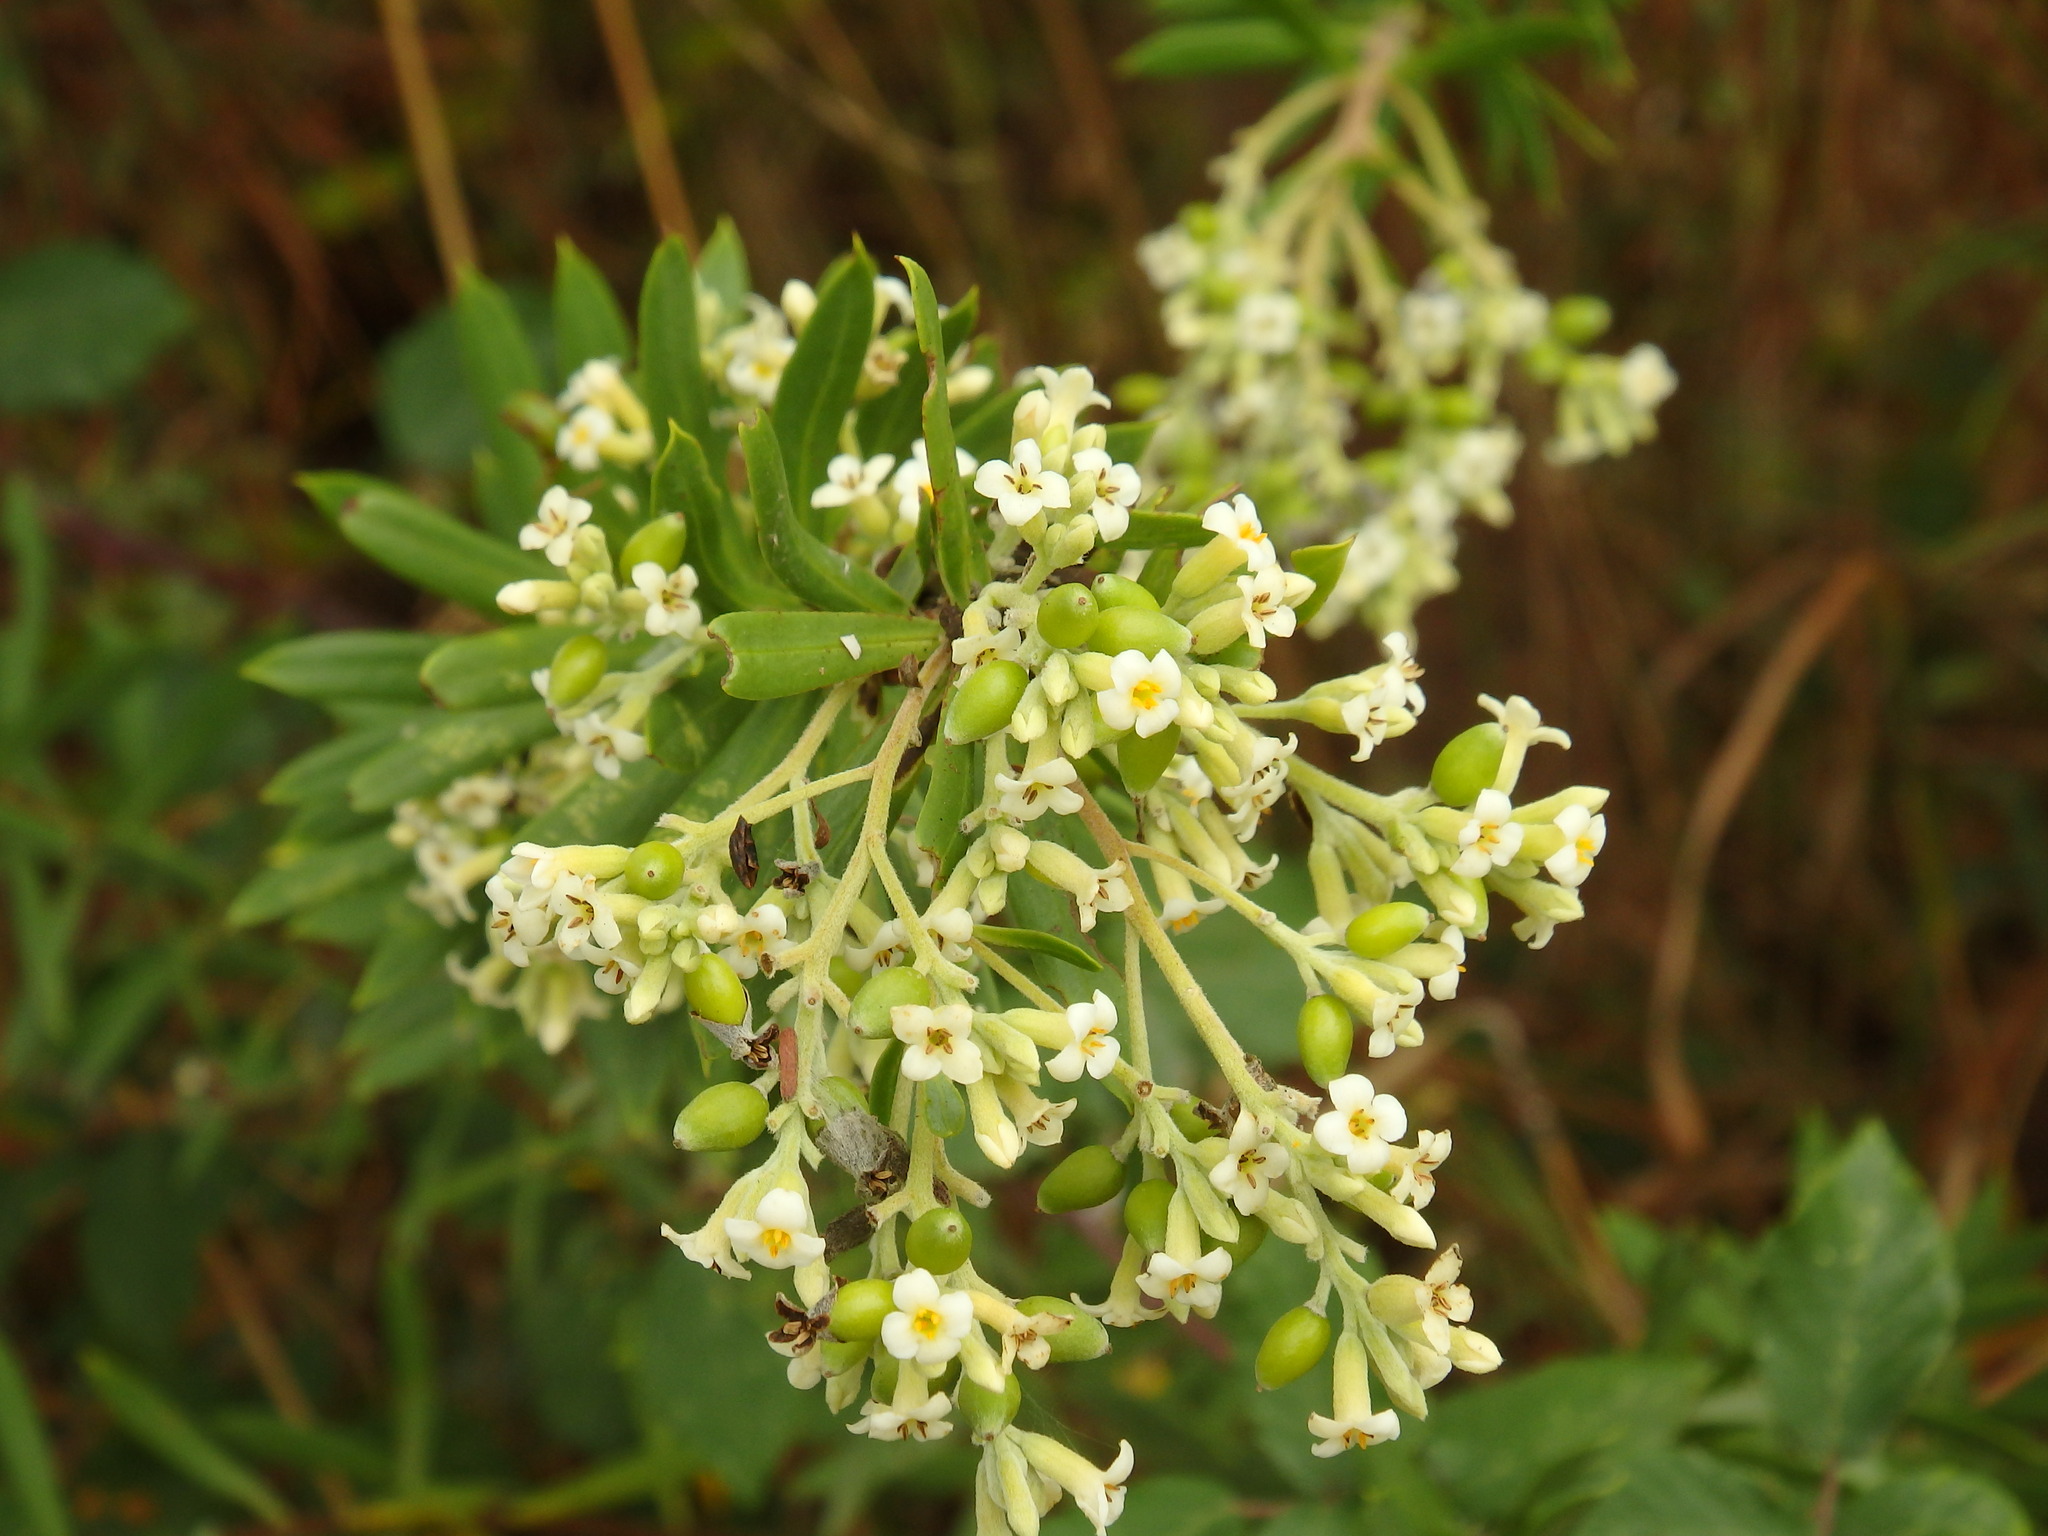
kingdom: Plantae
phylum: Tracheophyta
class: Magnoliopsida
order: Malvales
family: Thymelaeaceae
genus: Daphne
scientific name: Daphne gnidium
